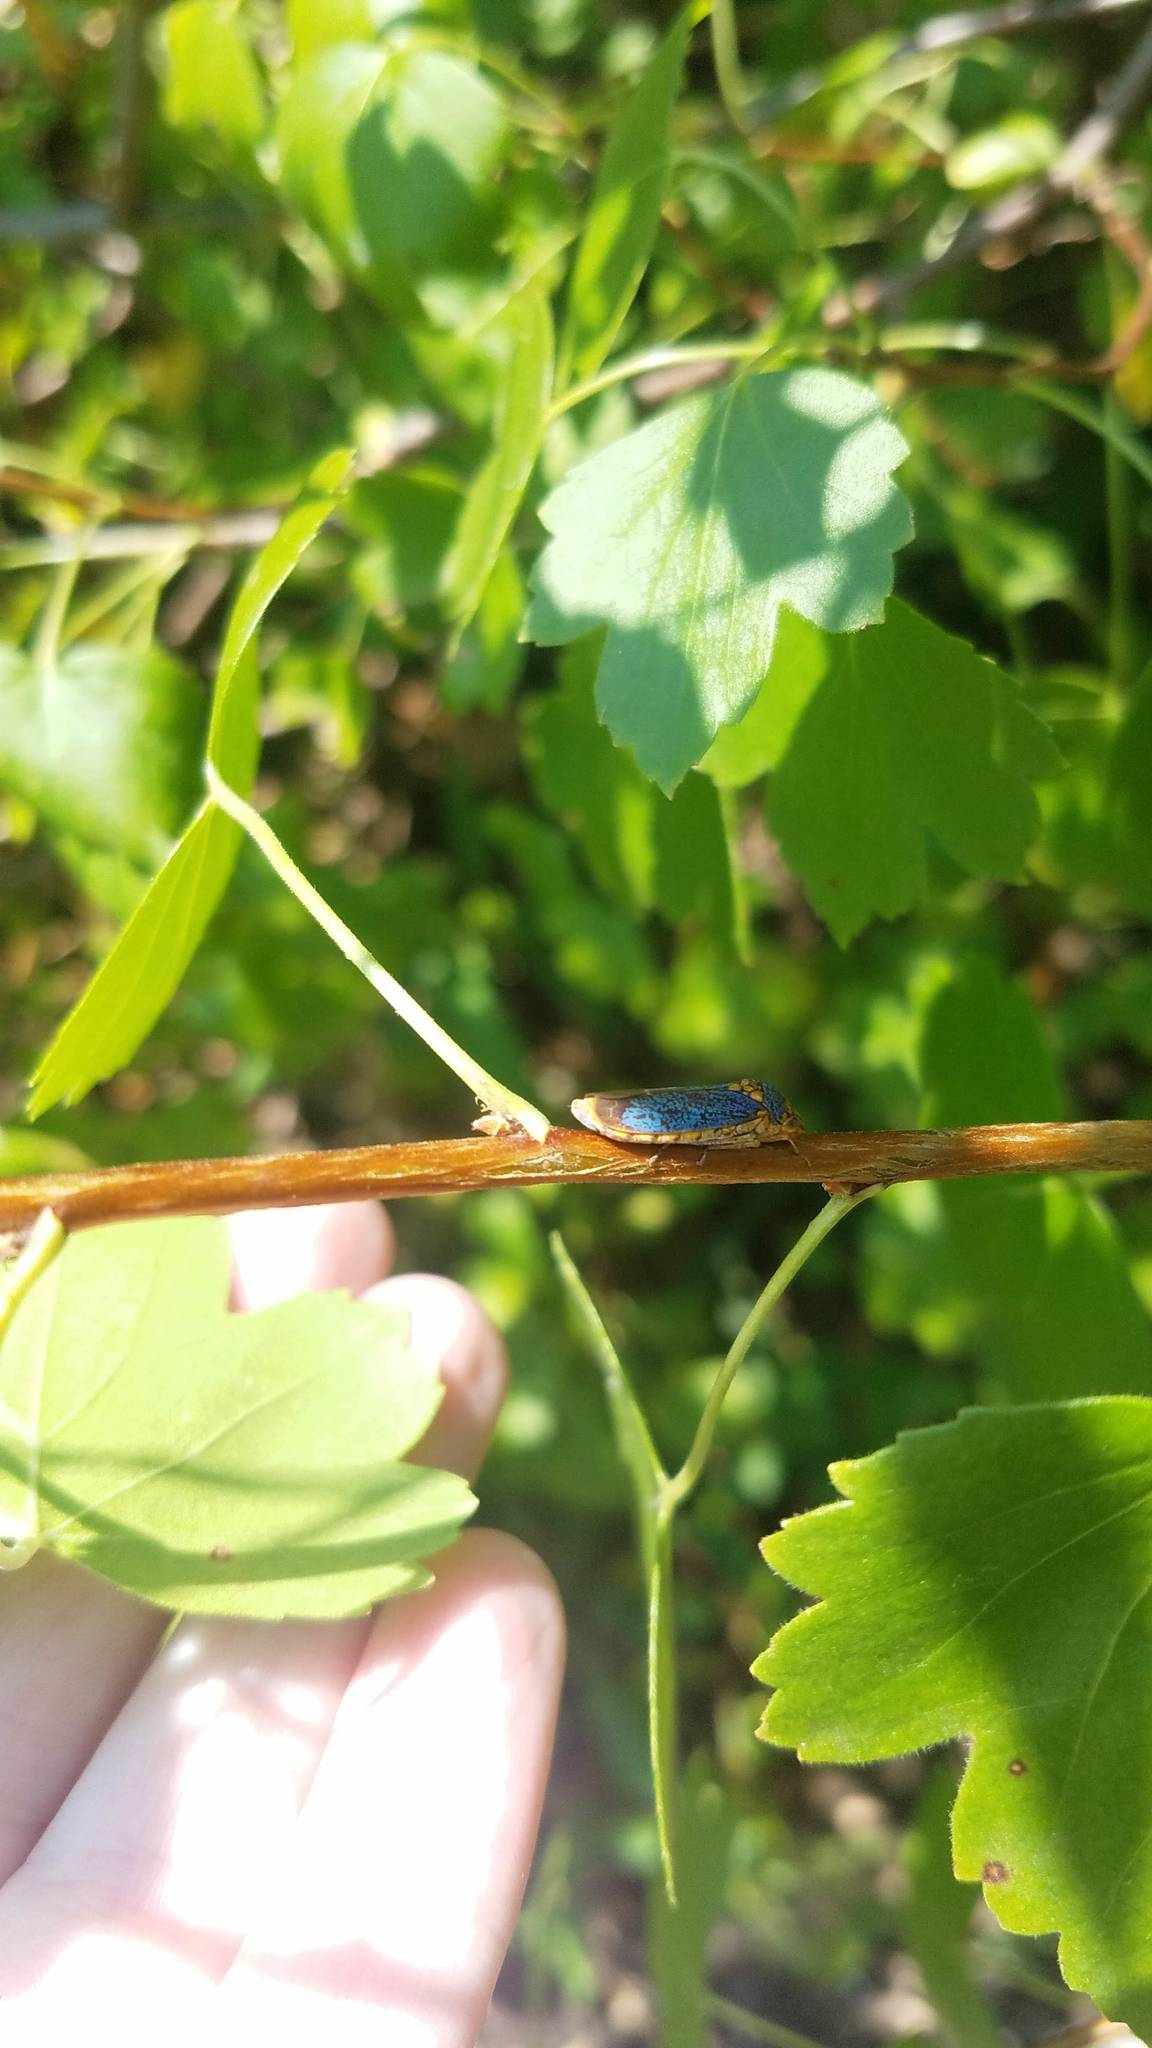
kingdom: Animalia
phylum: Arthropoda
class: Insecta
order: Hemiptera
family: Cicadellidae
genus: Oncometopia
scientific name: Oncometopia orbona
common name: Broad-headed sharpshooter
